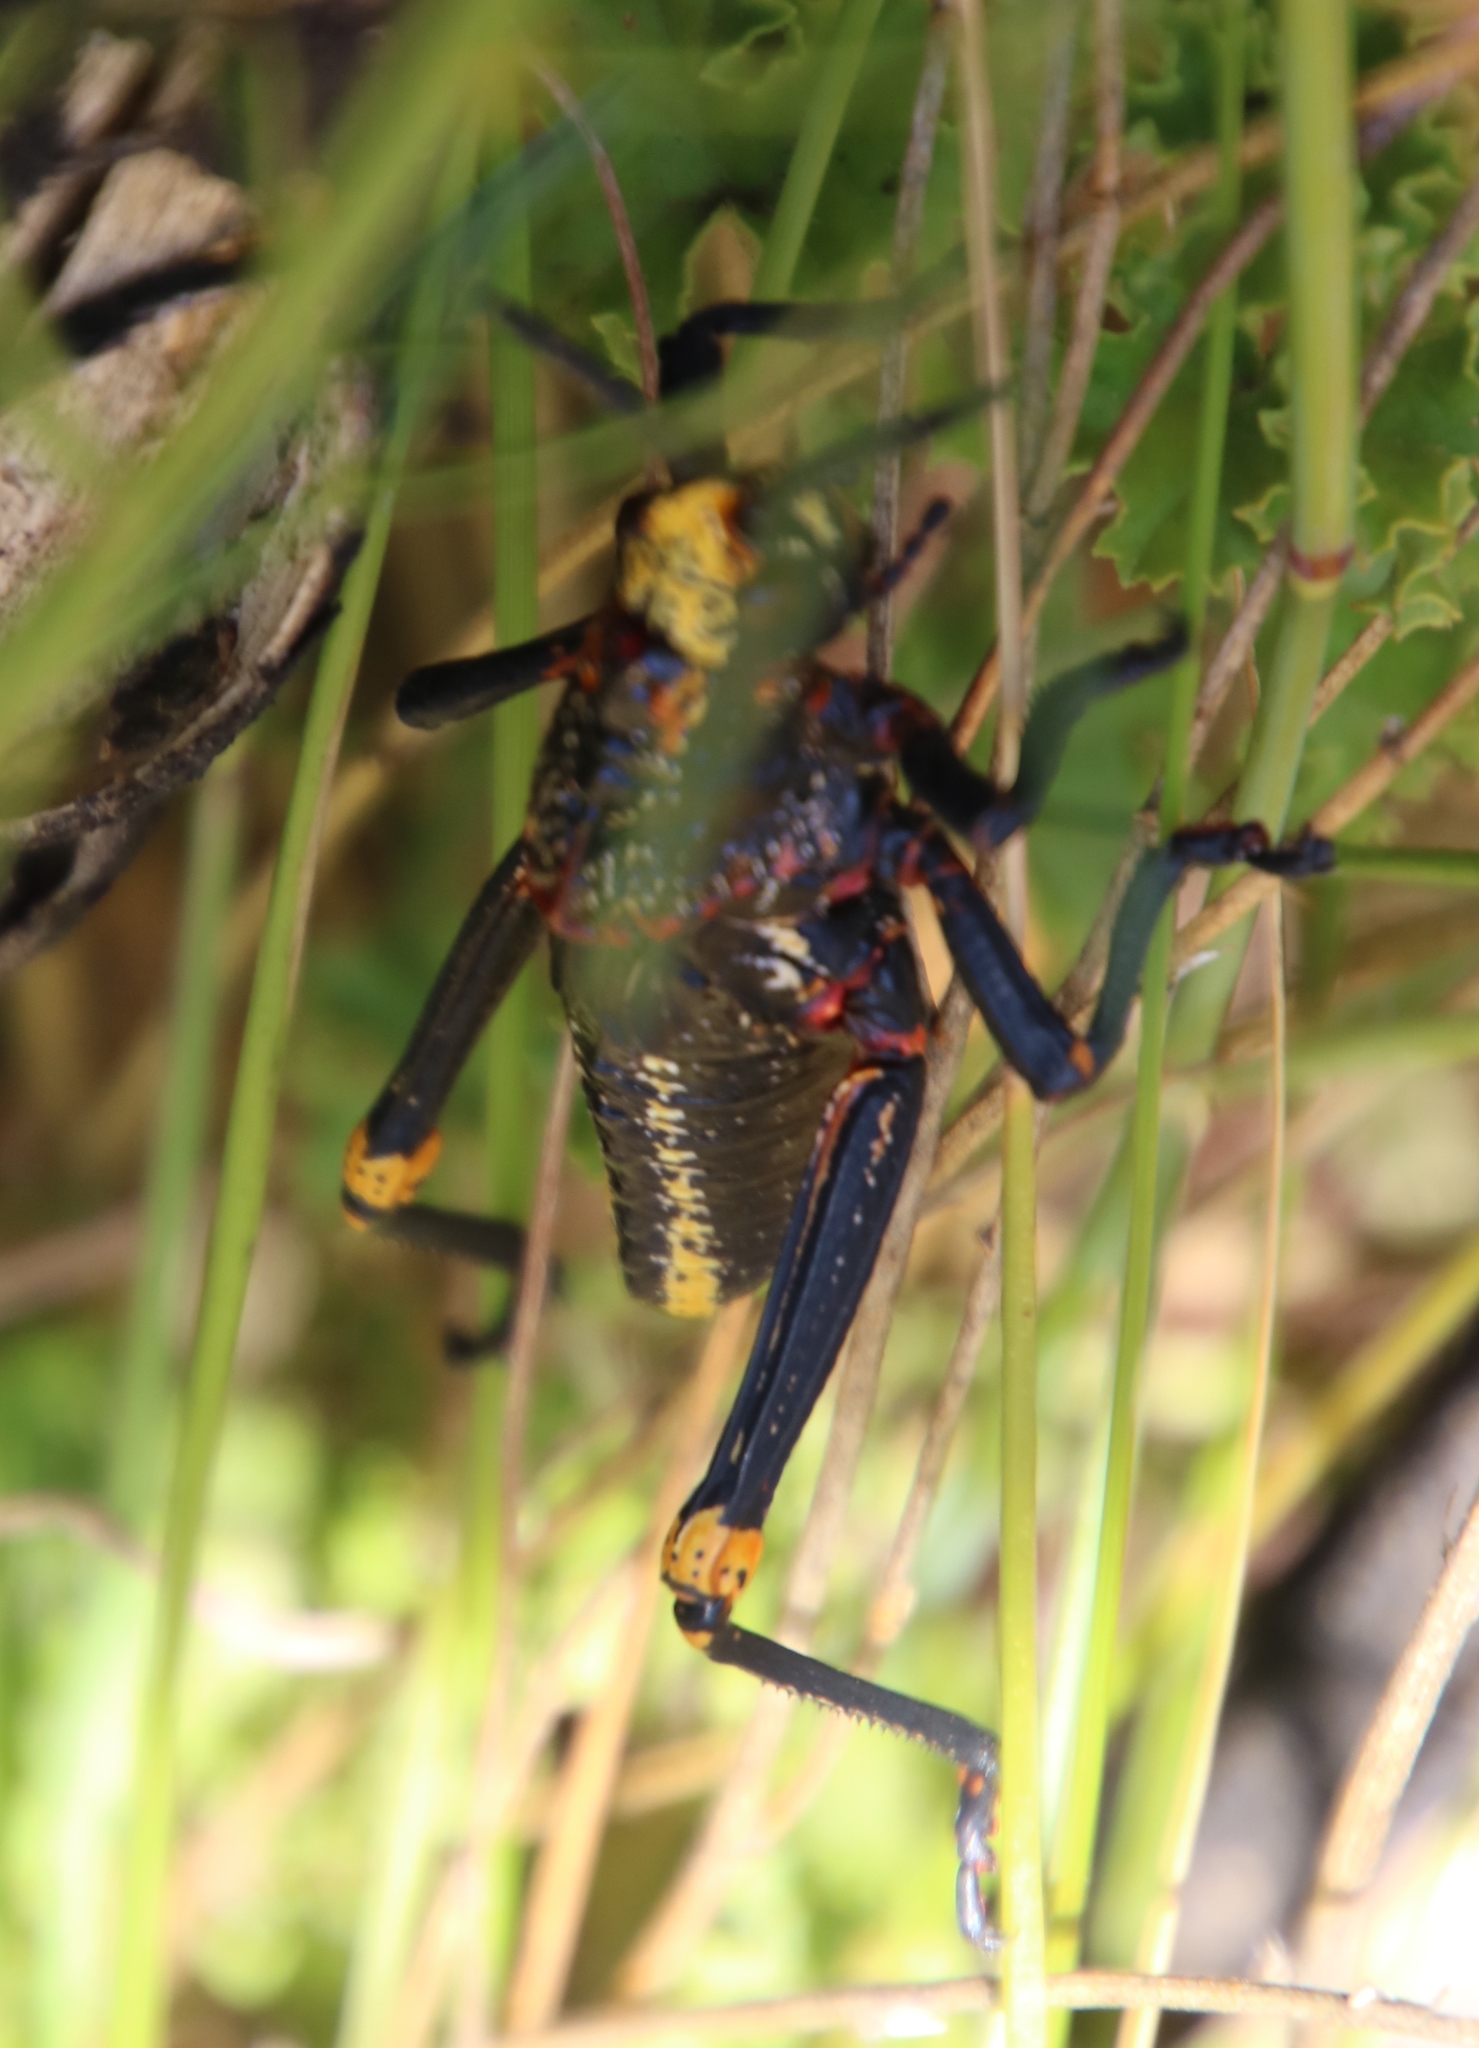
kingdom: Animalia
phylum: Arthropoda
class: Insecta
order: Orthoptera
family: Pyrgomorphidae
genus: Dictyophorus
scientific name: Dictyophorus spumans
